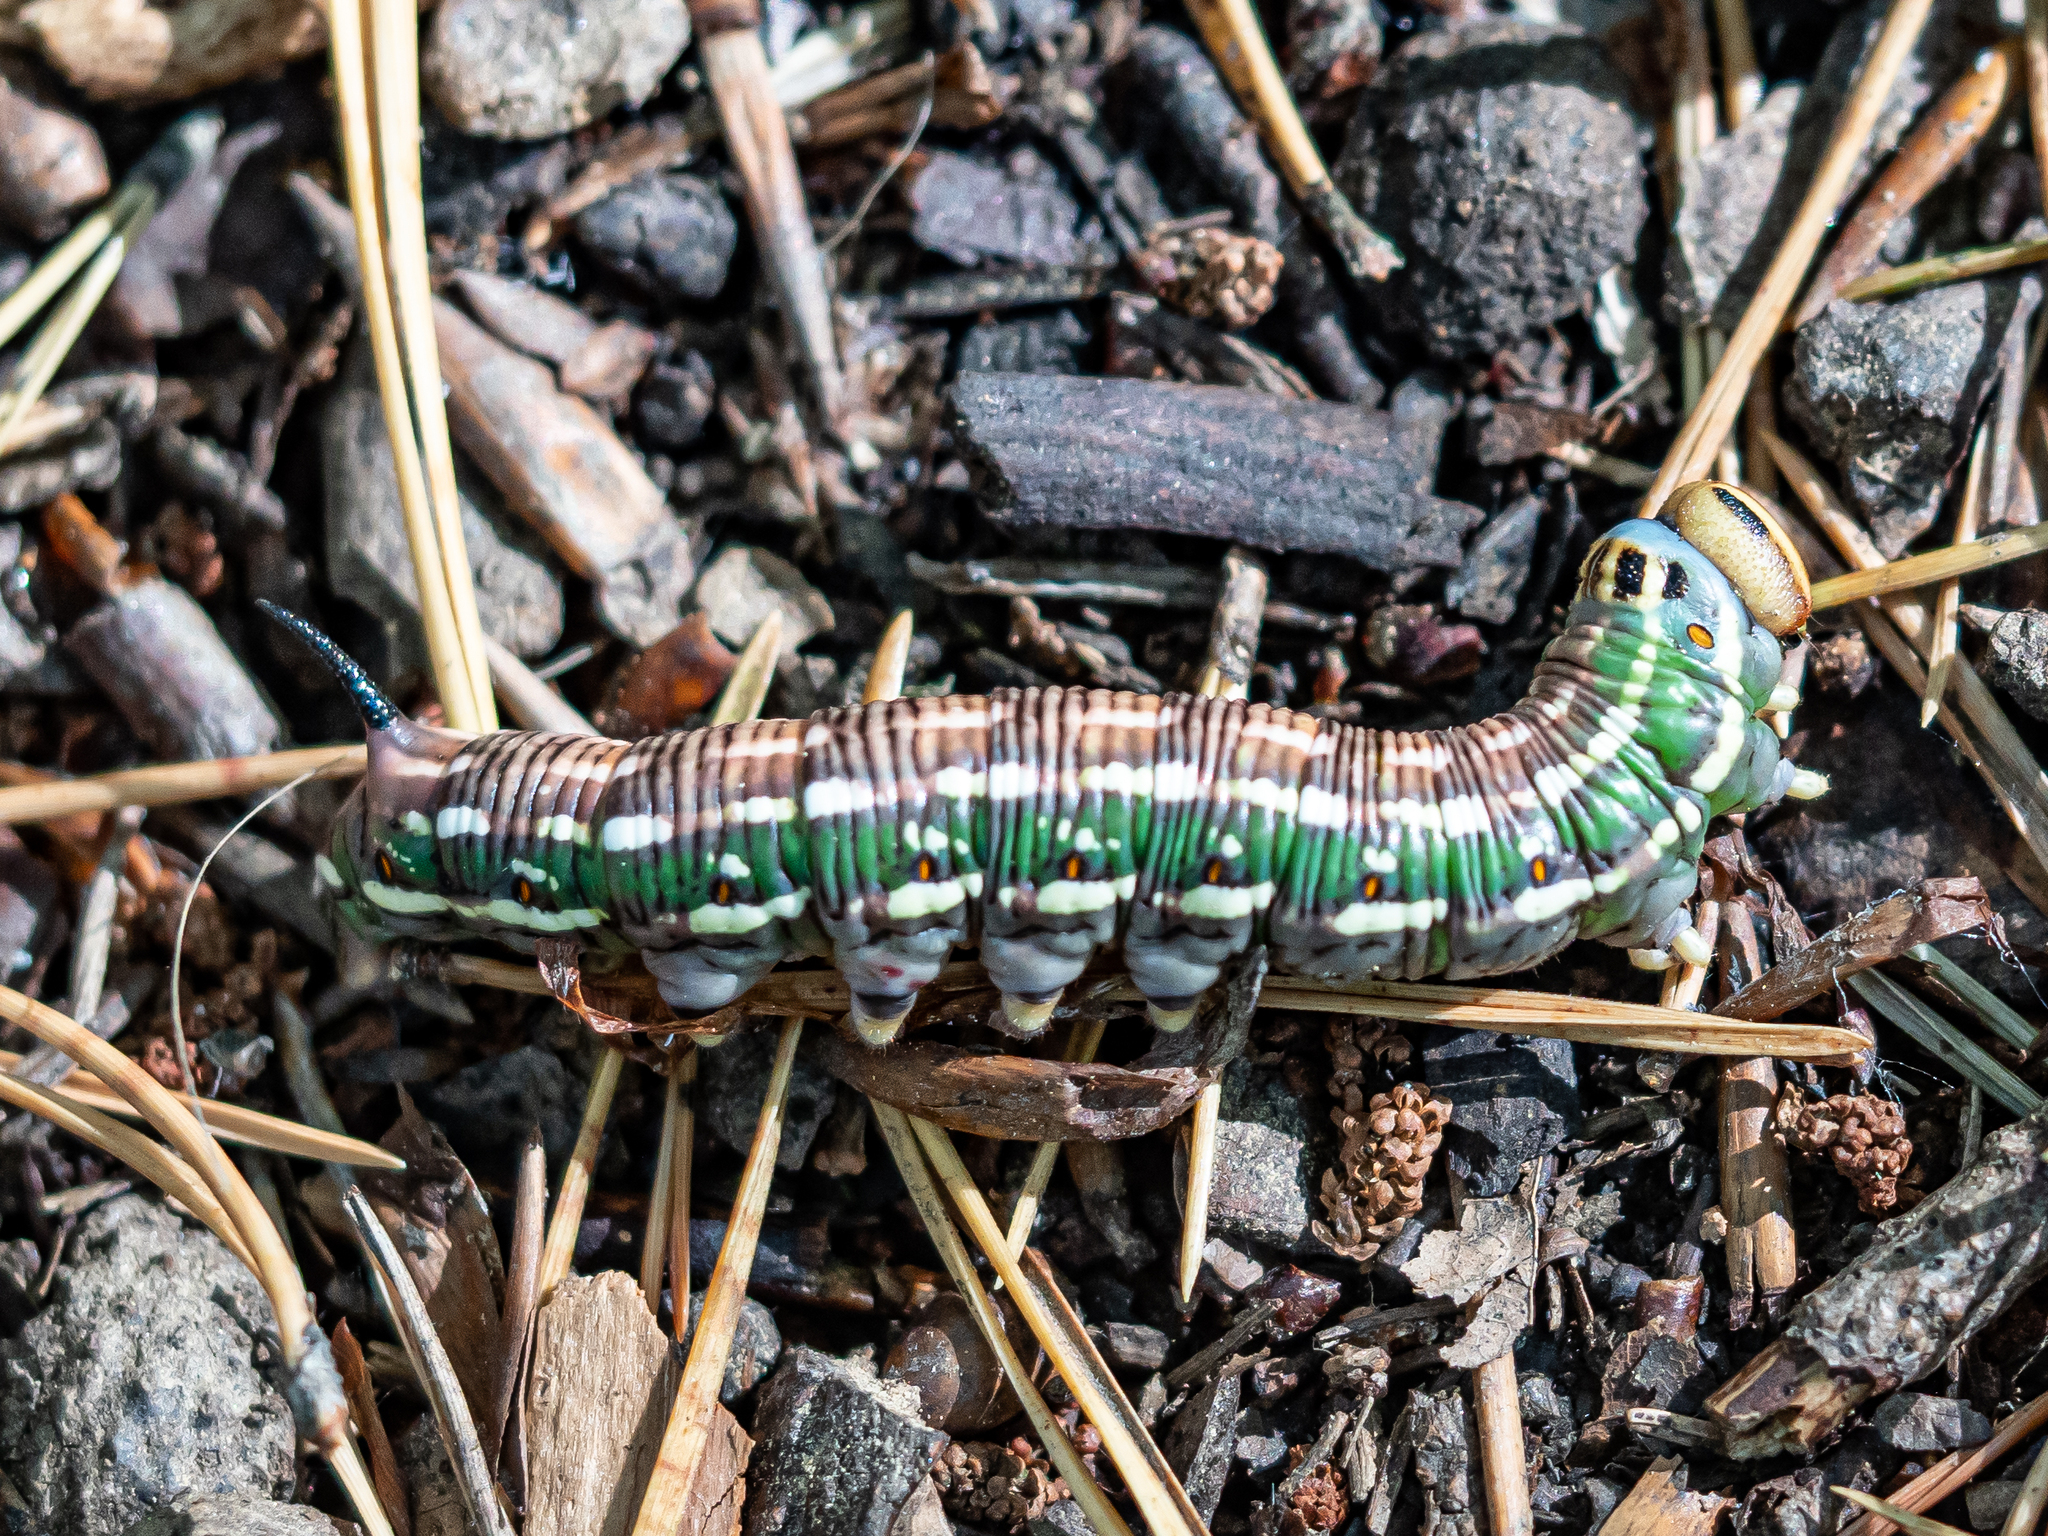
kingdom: Animalia
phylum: Arthropoda
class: Insecta
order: Lepidoptera
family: Sphingidae
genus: Sphinx
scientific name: Sphinx pinastri
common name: Pine hawk-moth
